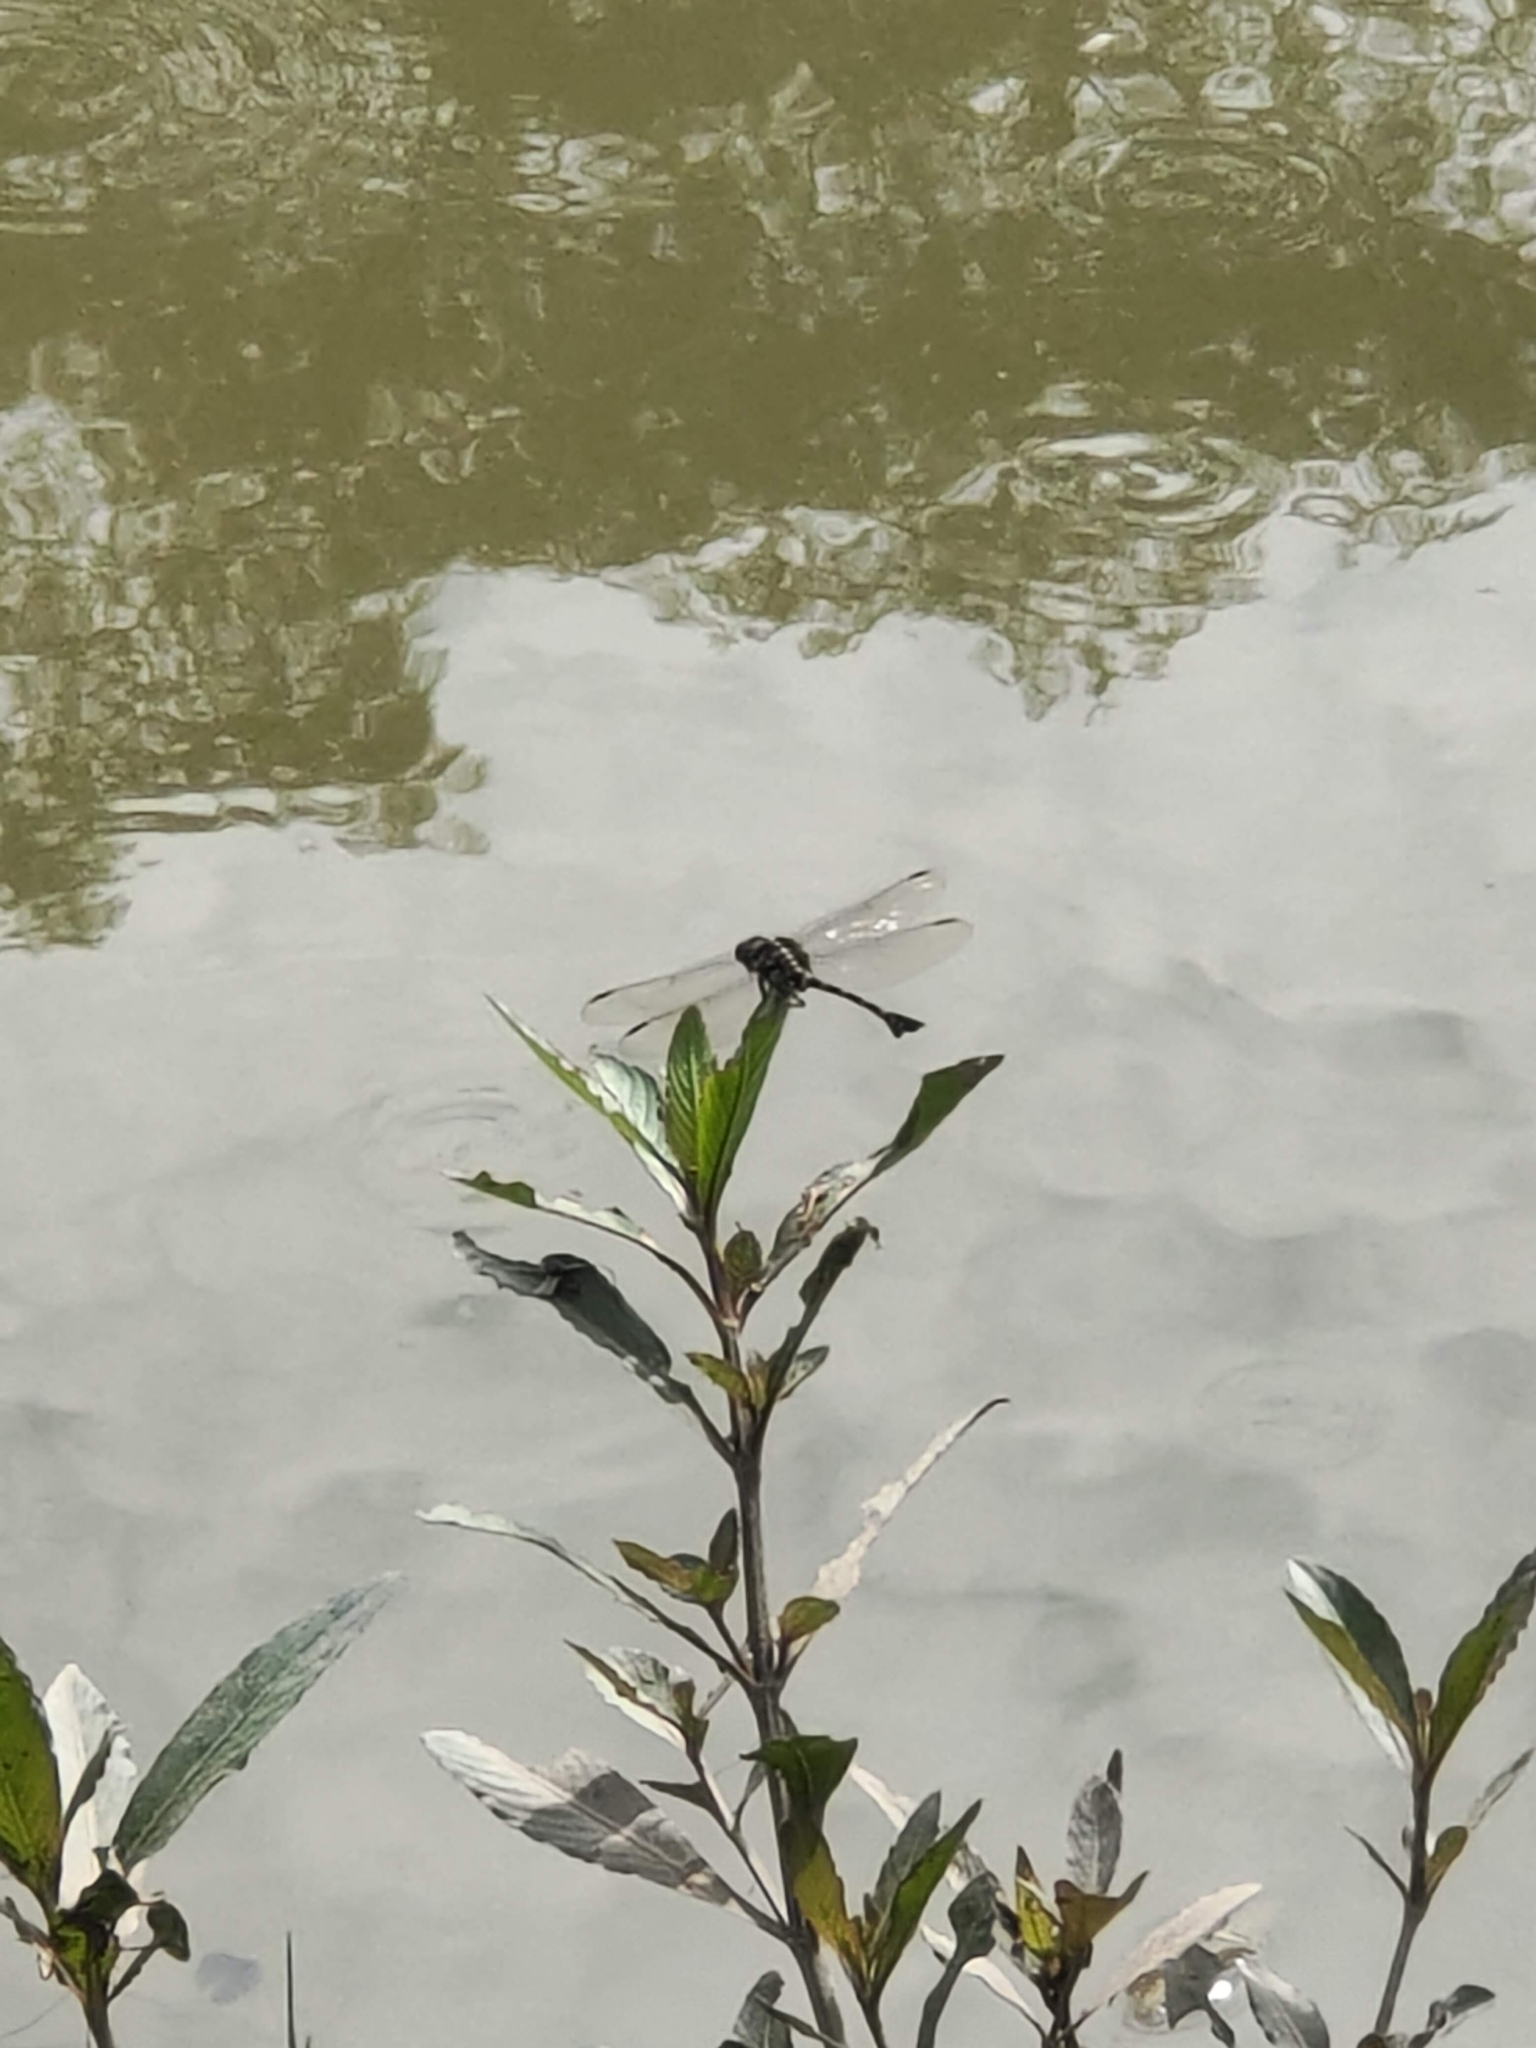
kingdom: Animalia
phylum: Arthropoda
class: Insecta
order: Odonata
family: Gomphidae
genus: Ictinogomphus
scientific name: Ictinogomphus decoratus
